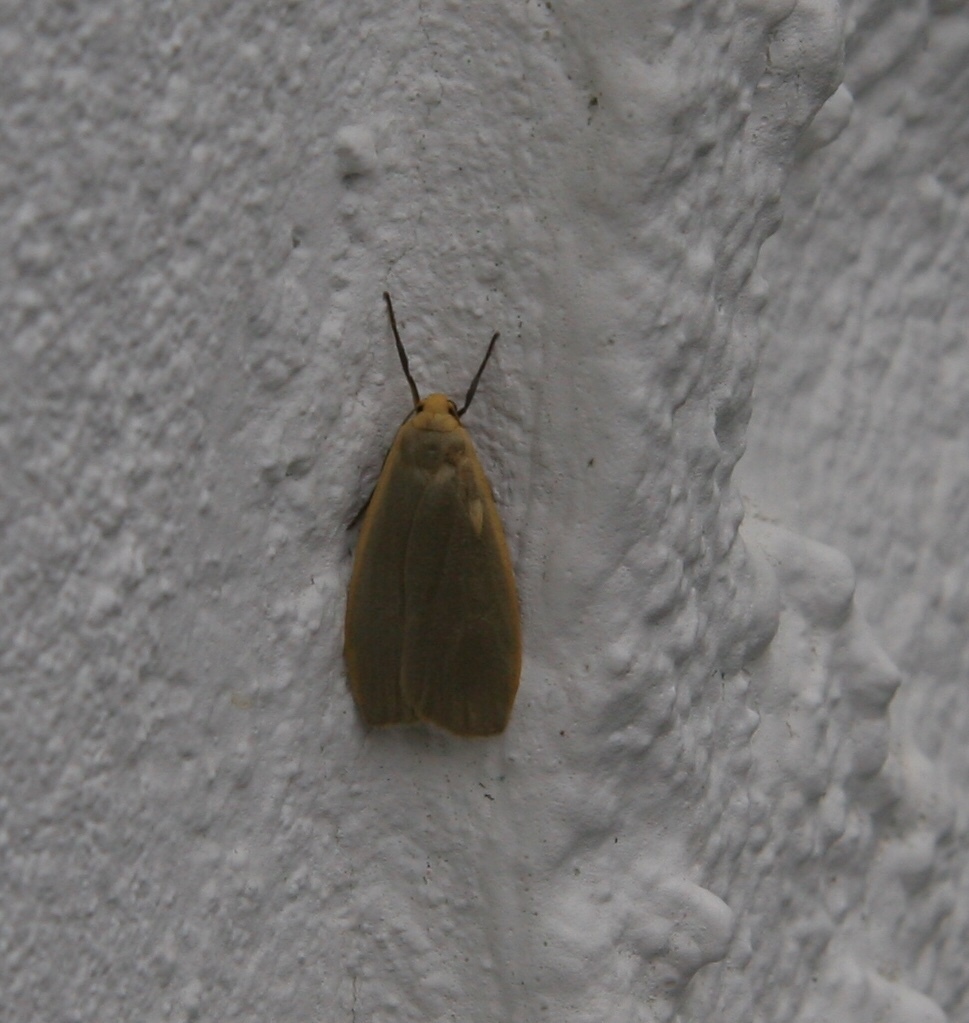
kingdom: Animalia
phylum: Arthropoda
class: Insecta
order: Lepidoptera
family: Erebidae
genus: Collita
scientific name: Collita griseola
